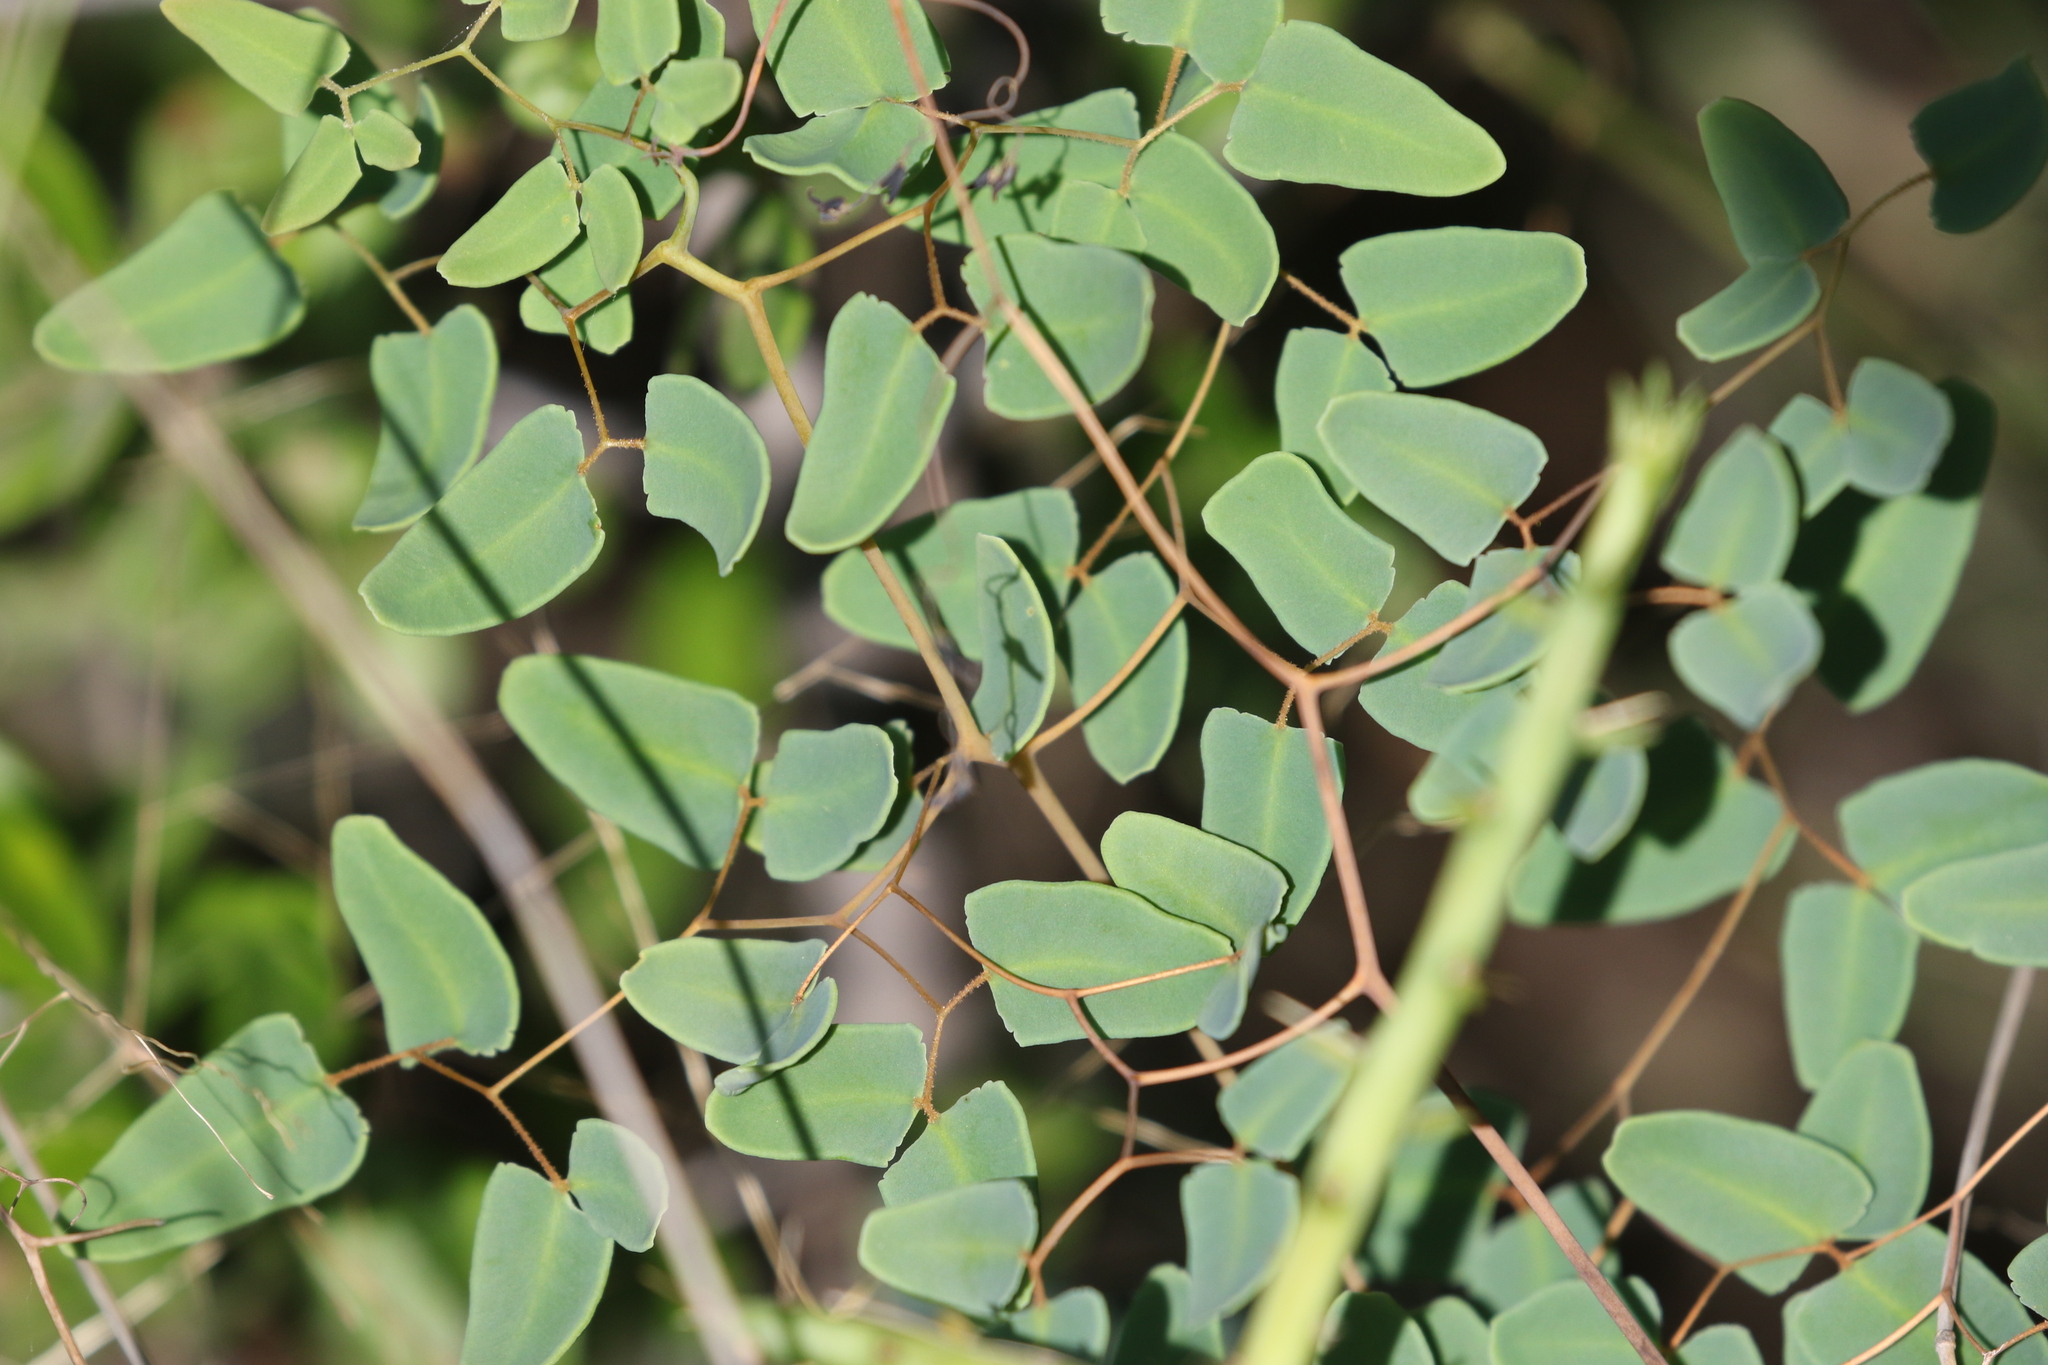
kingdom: Plantae
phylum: Tracheophyta
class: Polypodiopsida
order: Polypodiales
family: Pteridaceae
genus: Pellaea
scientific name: Pellaea ovata
